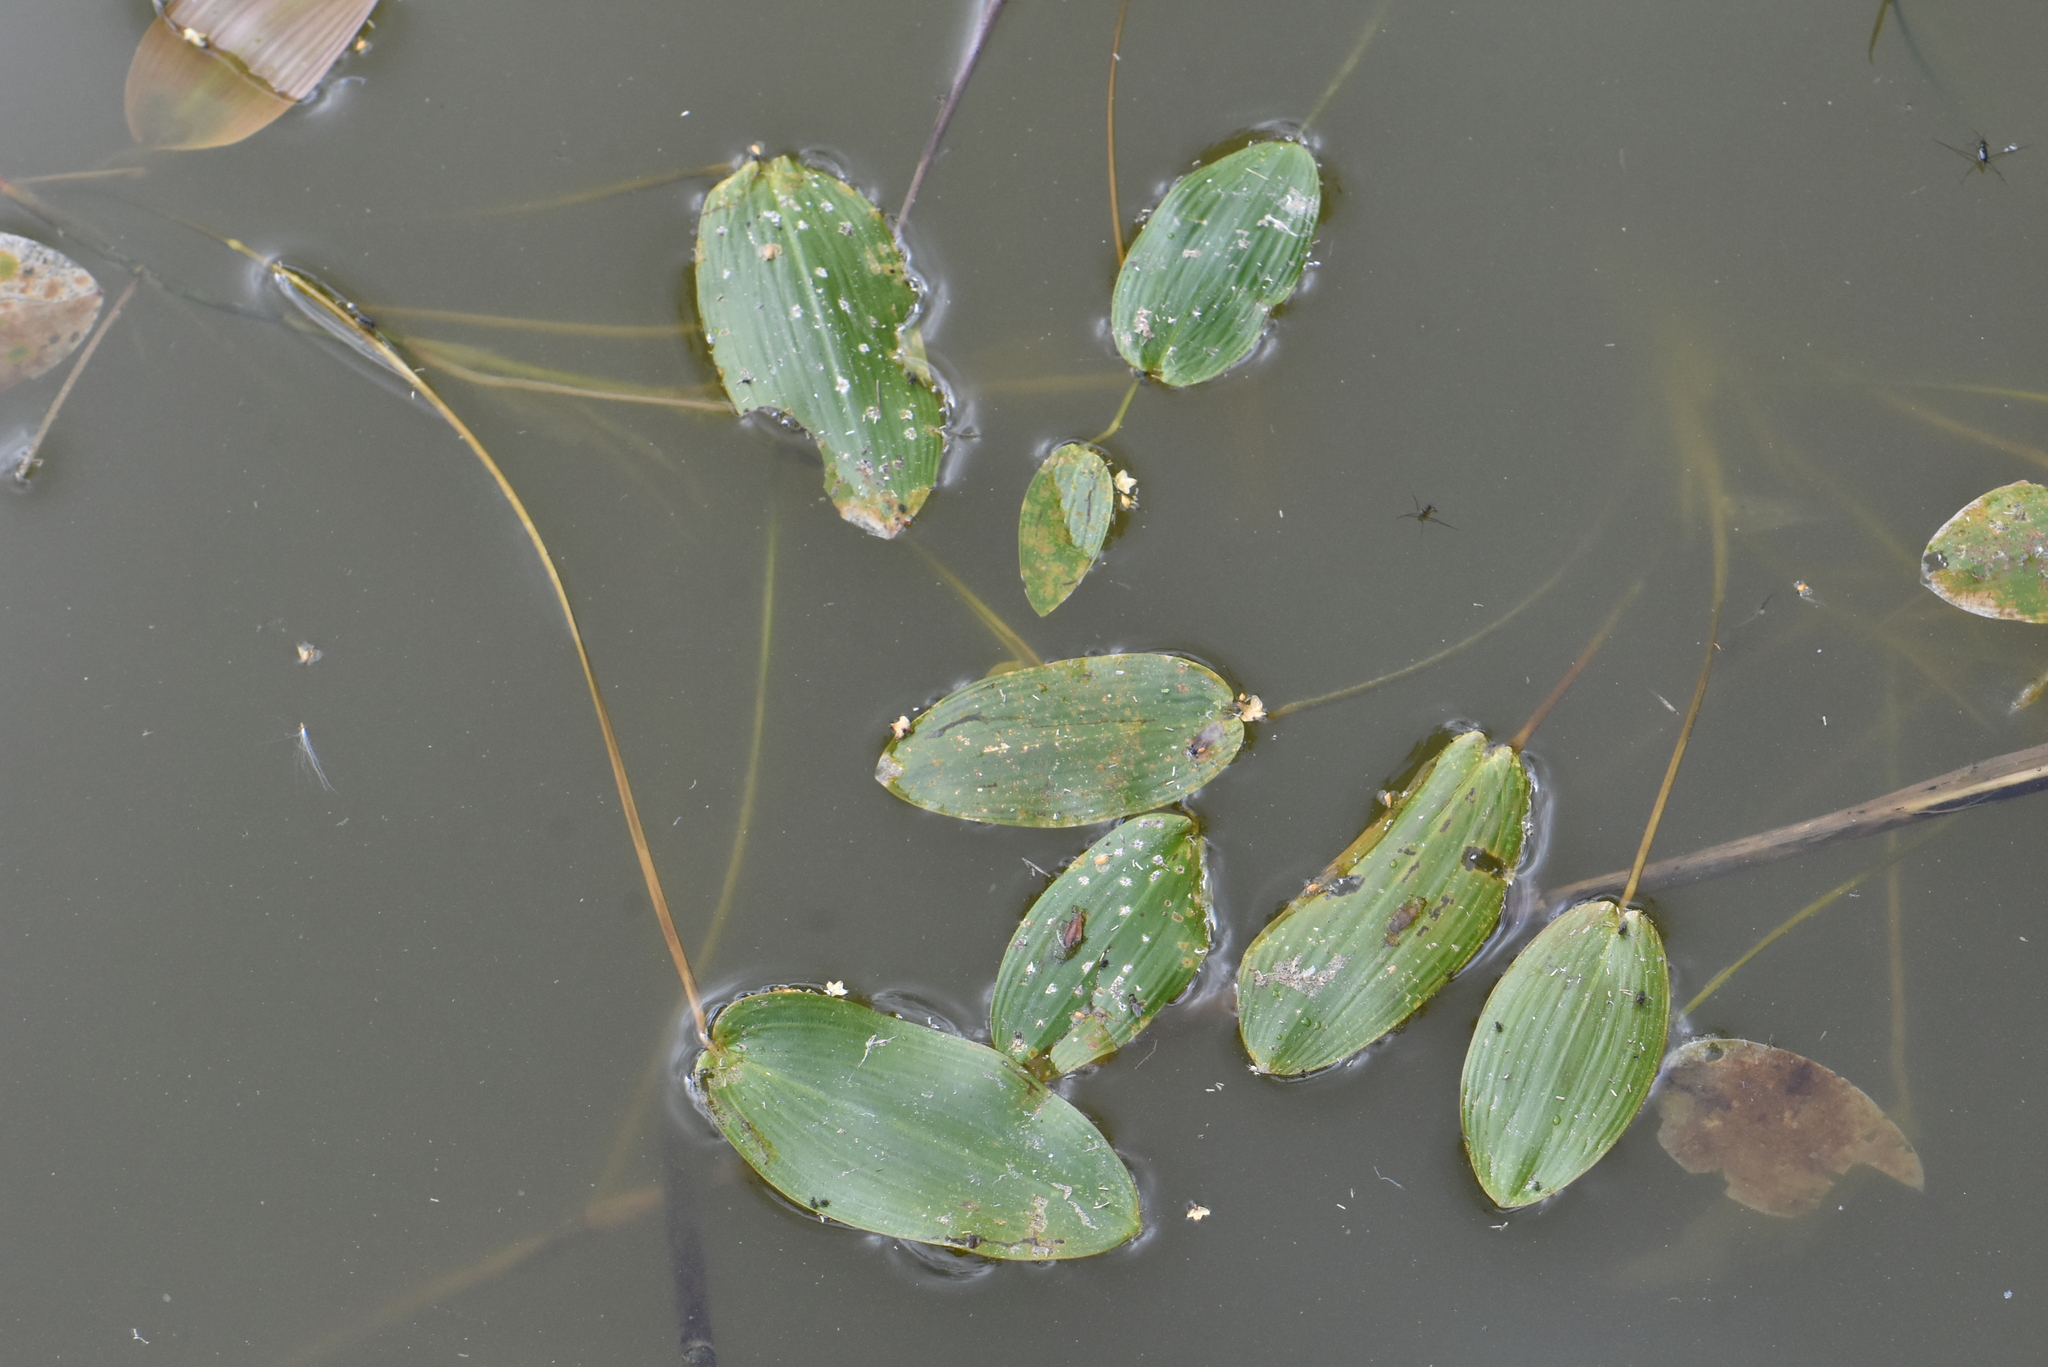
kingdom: Plantae
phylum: Tracheophyta
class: Liliopsida
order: Alismatales
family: Potamogetonaceae
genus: Potamogeton
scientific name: Potamogeton natans
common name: Broad-leaved pondweed
